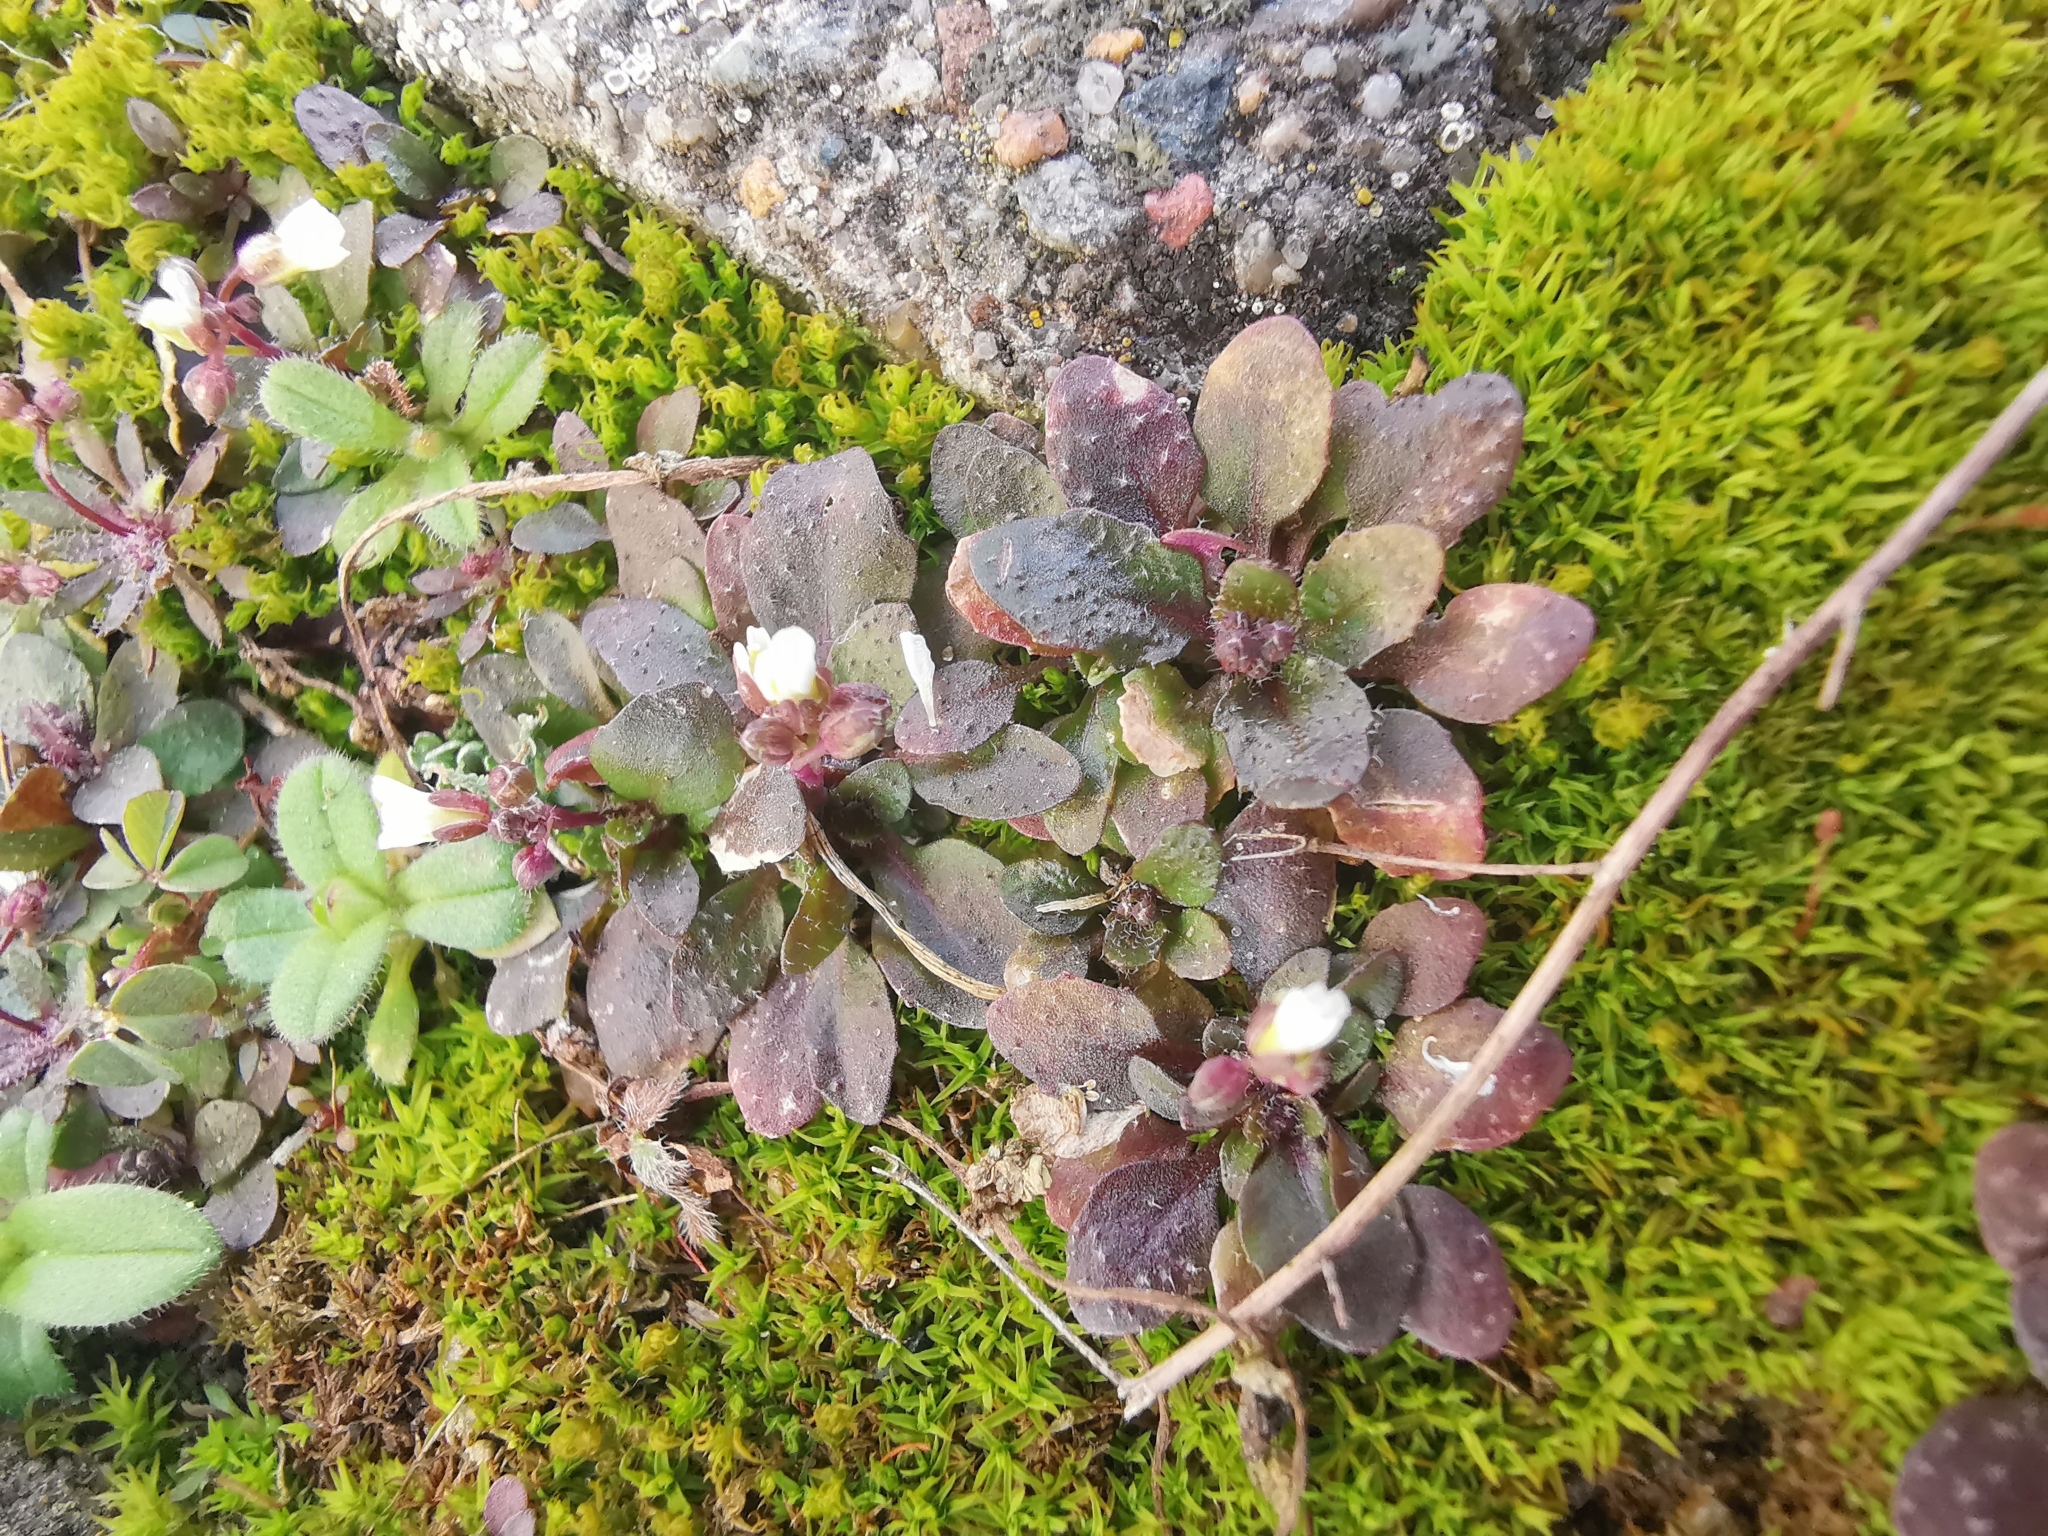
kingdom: Plantae
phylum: Tracheophyta
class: Magnoliopsida
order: Brassicales
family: Brassicaceae
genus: Draba
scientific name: Draba verna
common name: Spring draba
